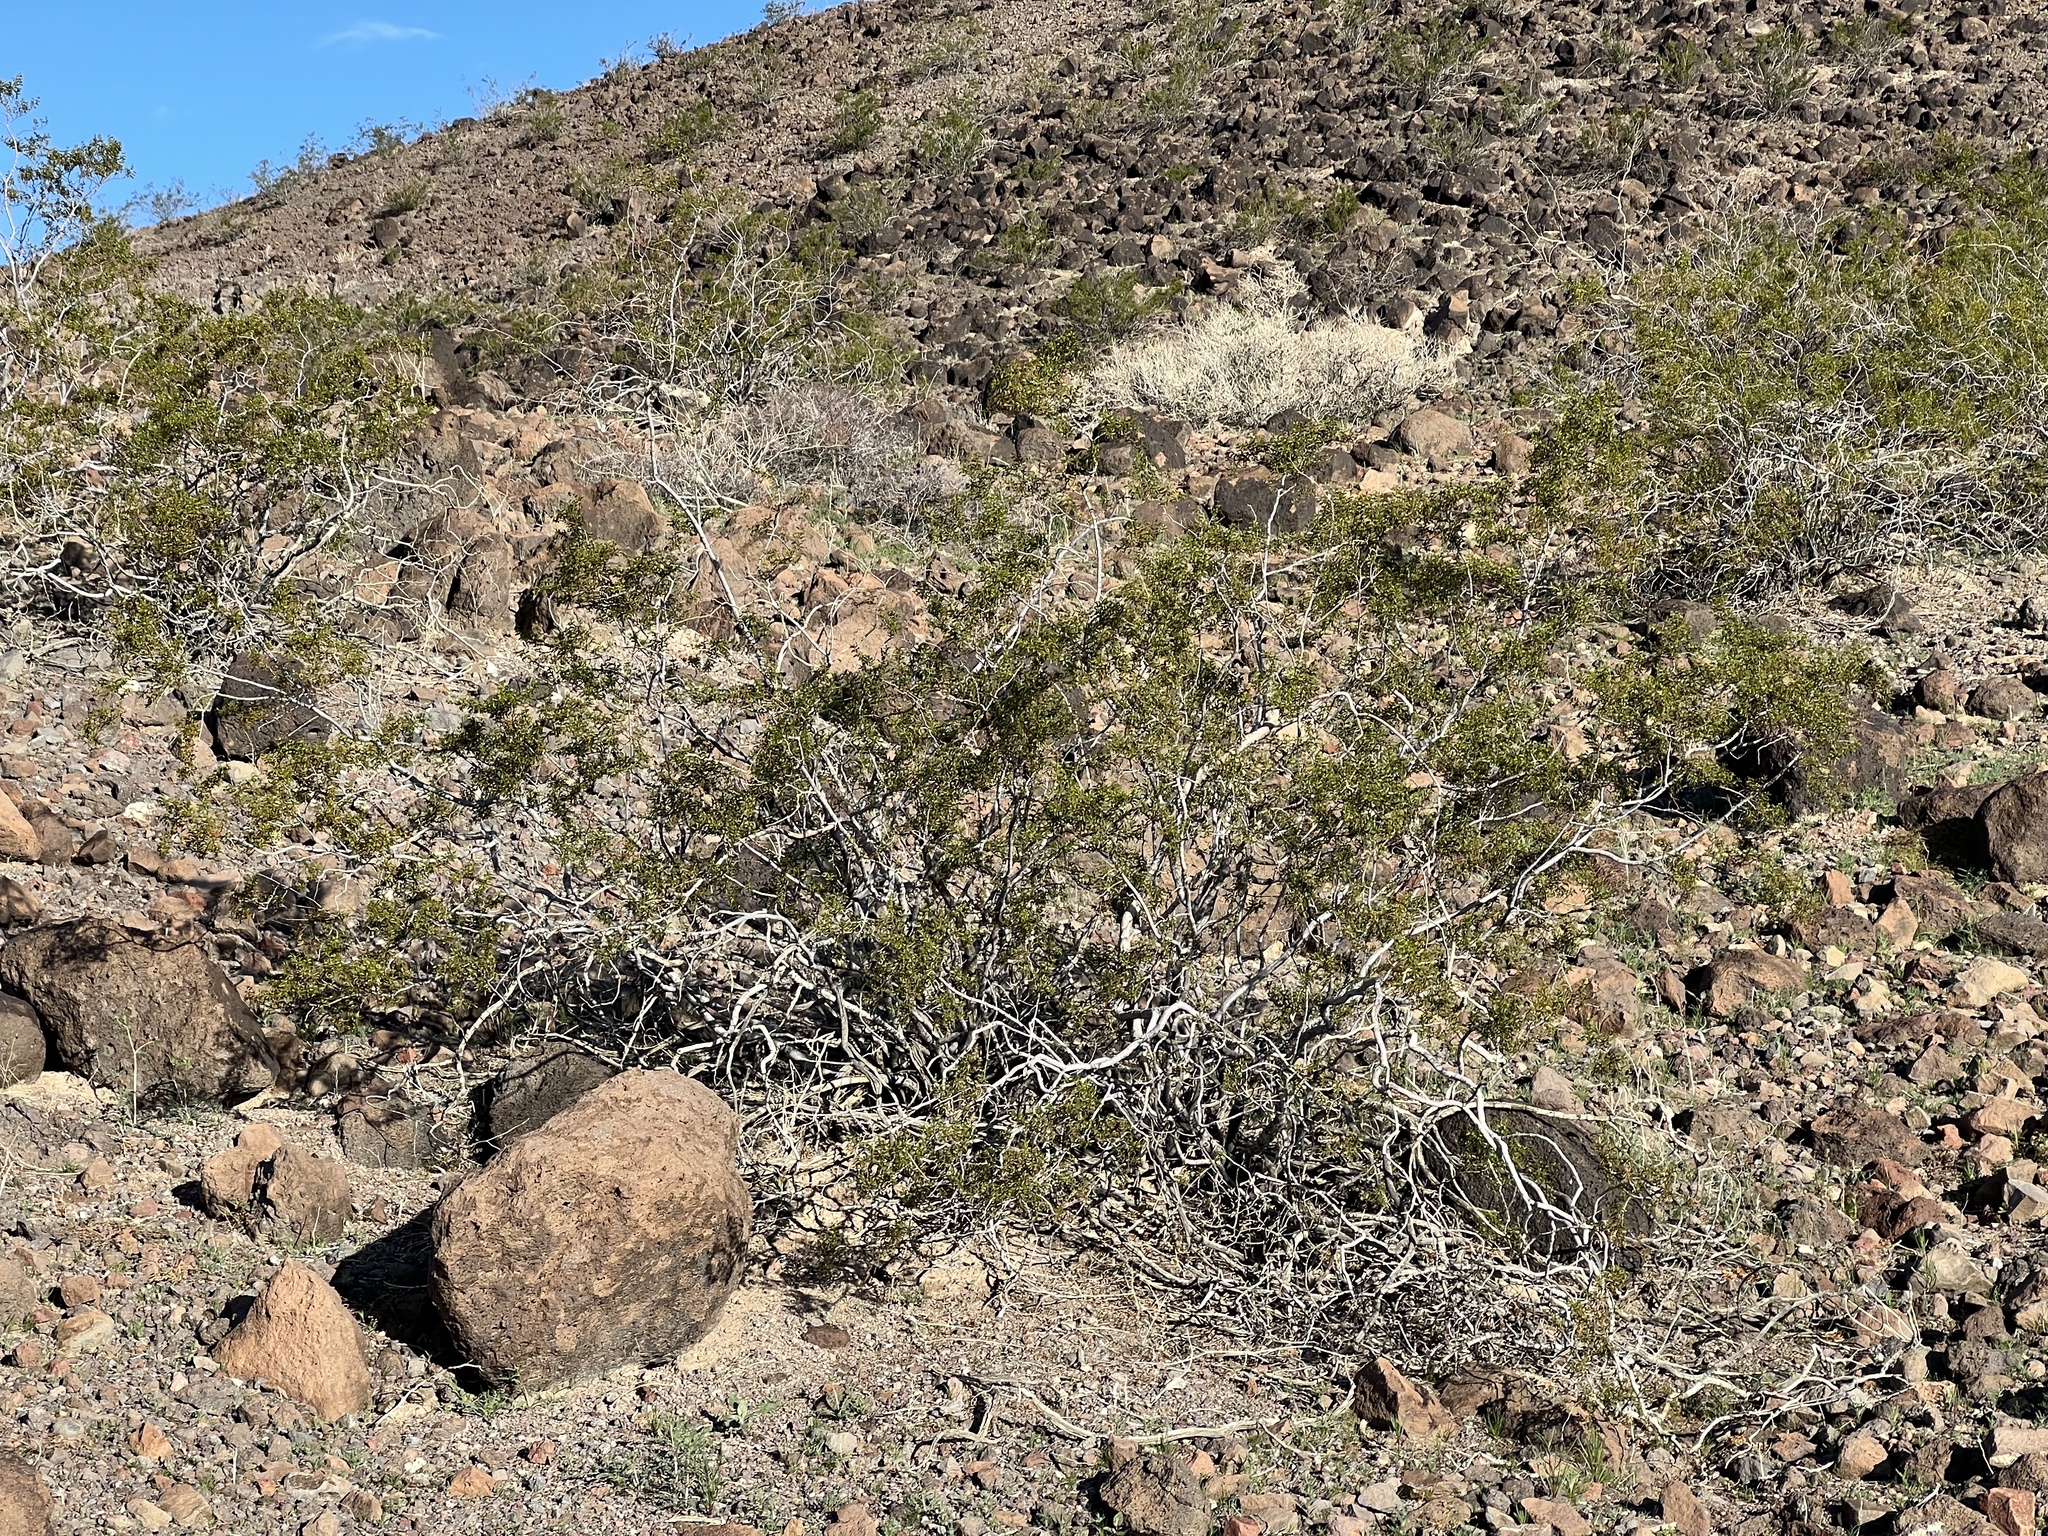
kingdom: Plantae
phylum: Tracheophyta
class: Magnoliopsida
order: Zygophyllales
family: Zygophyllaceae
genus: Larrea
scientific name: Larrea tridentata
